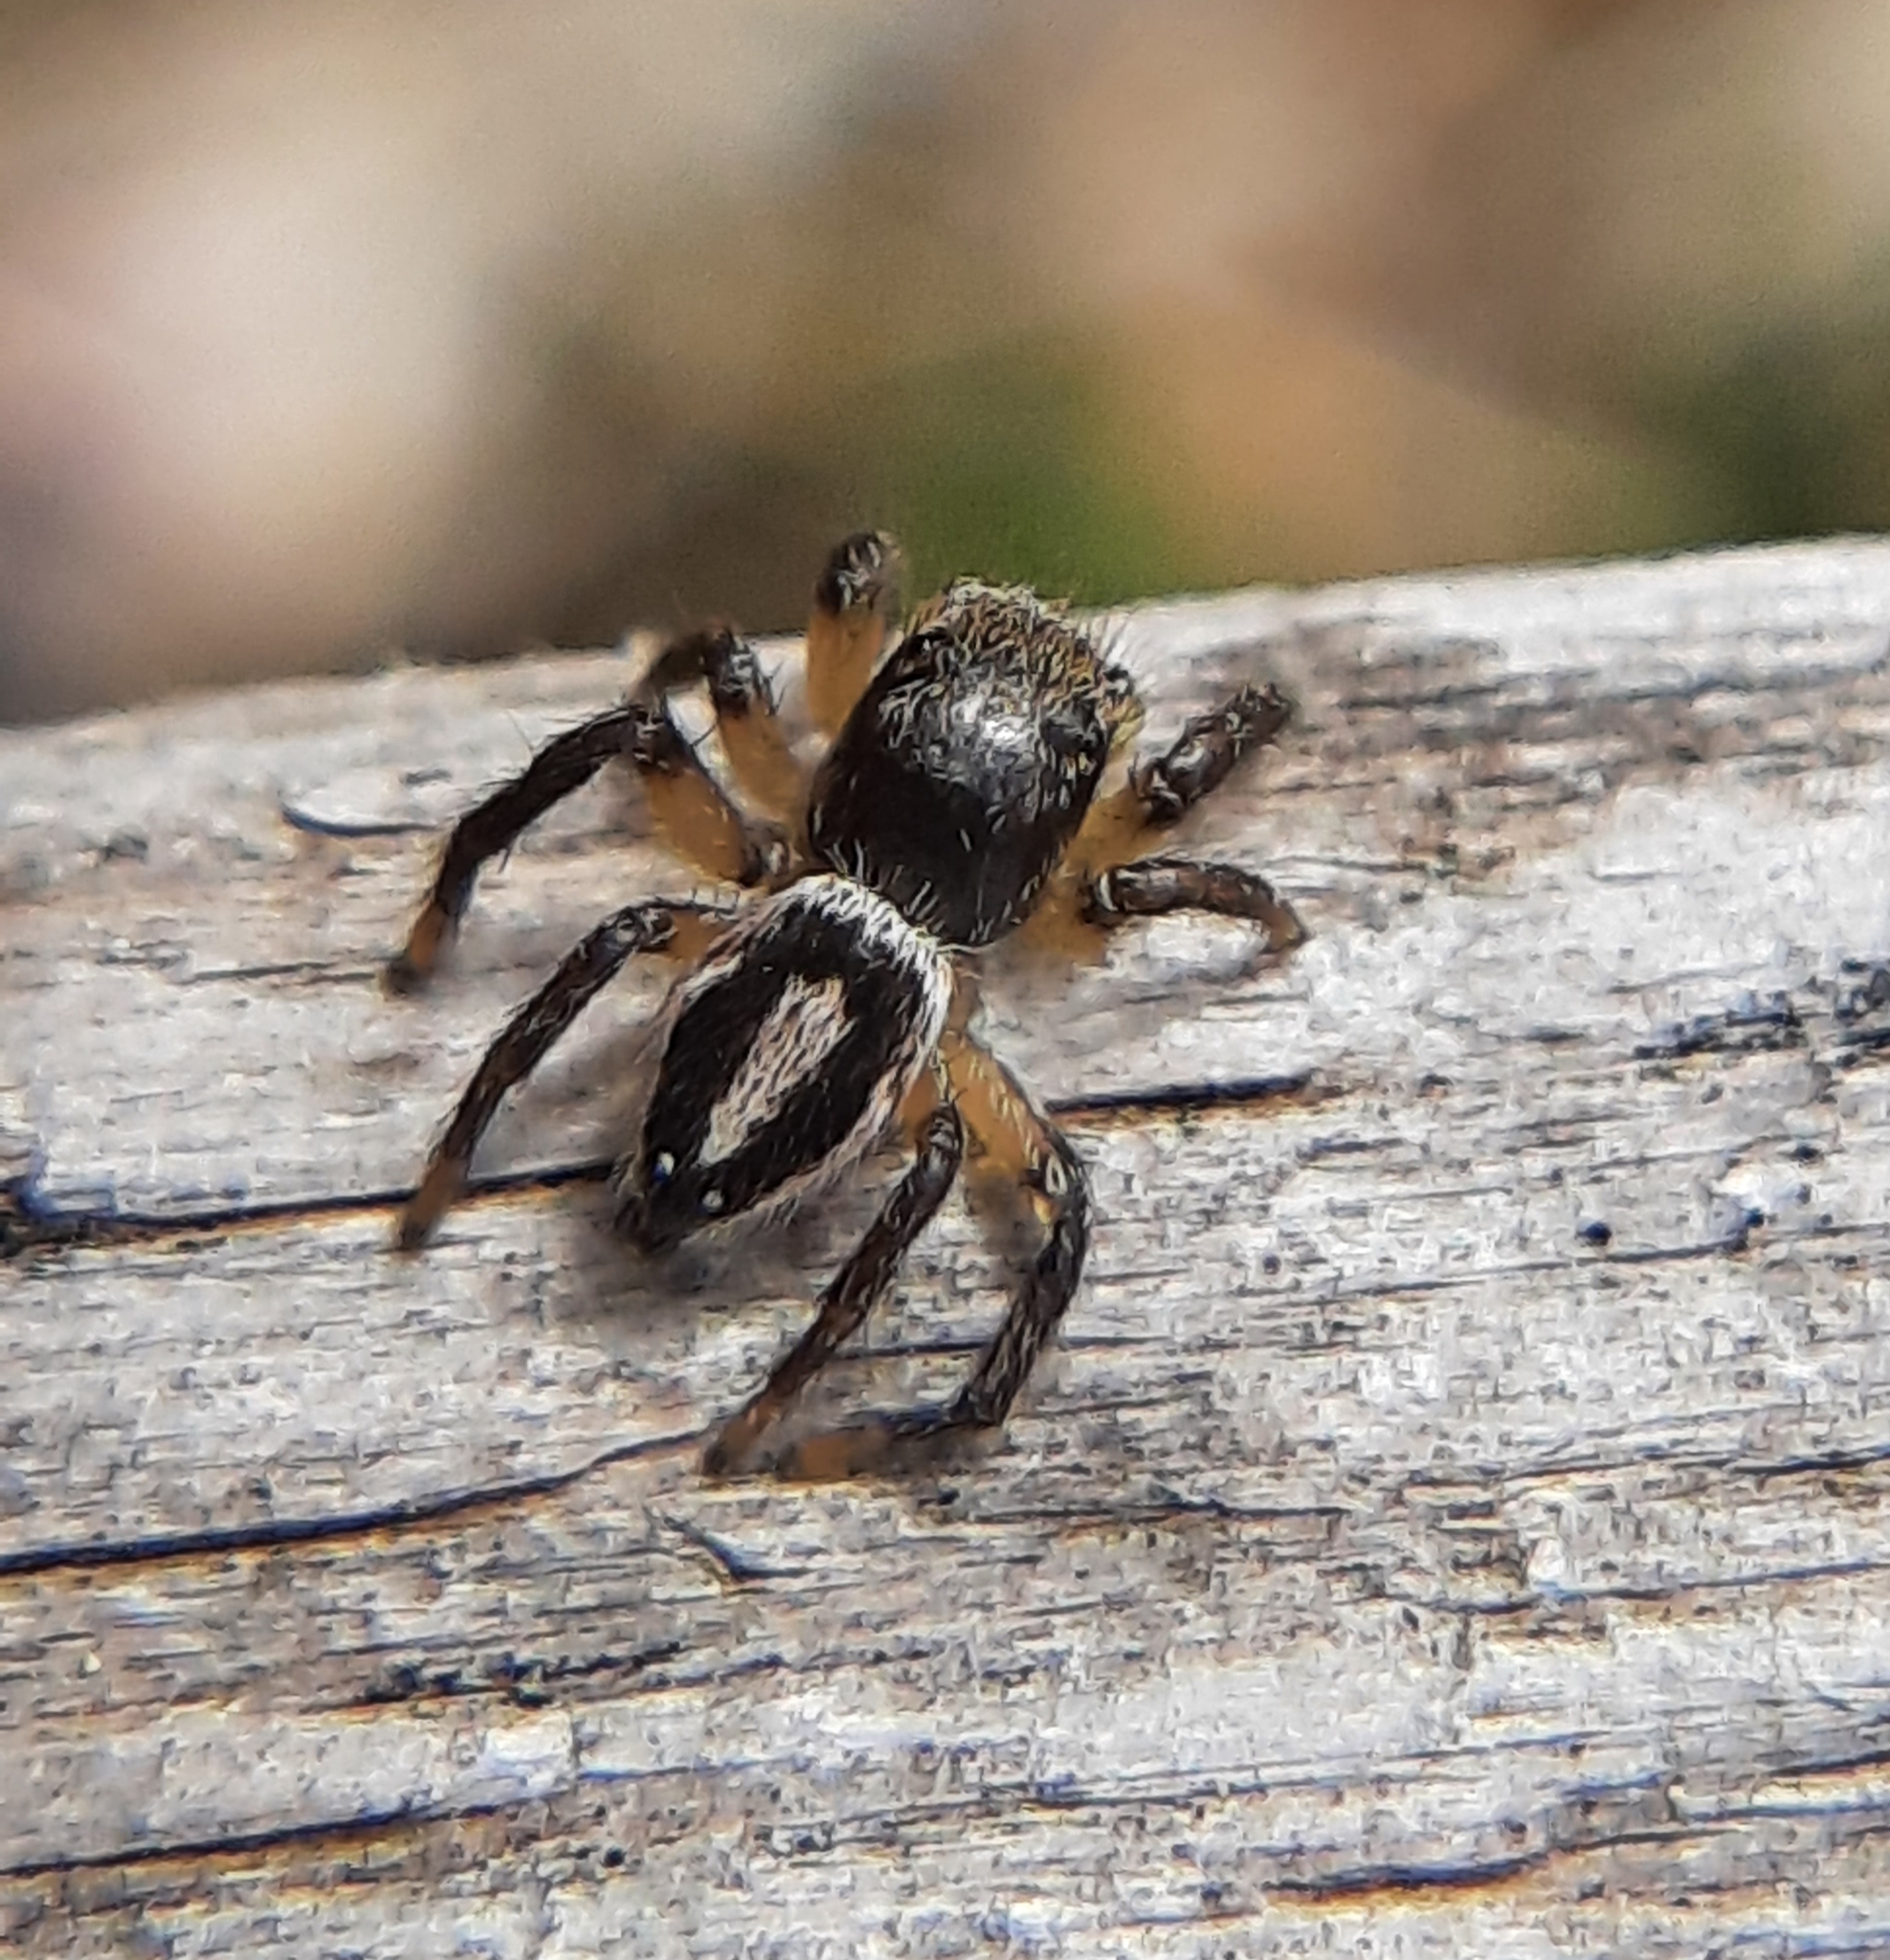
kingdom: Animalia
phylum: Arthropoda
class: Arachnida
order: Araneae
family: Salticidae
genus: Habronattus
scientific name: Habronattus decorus
